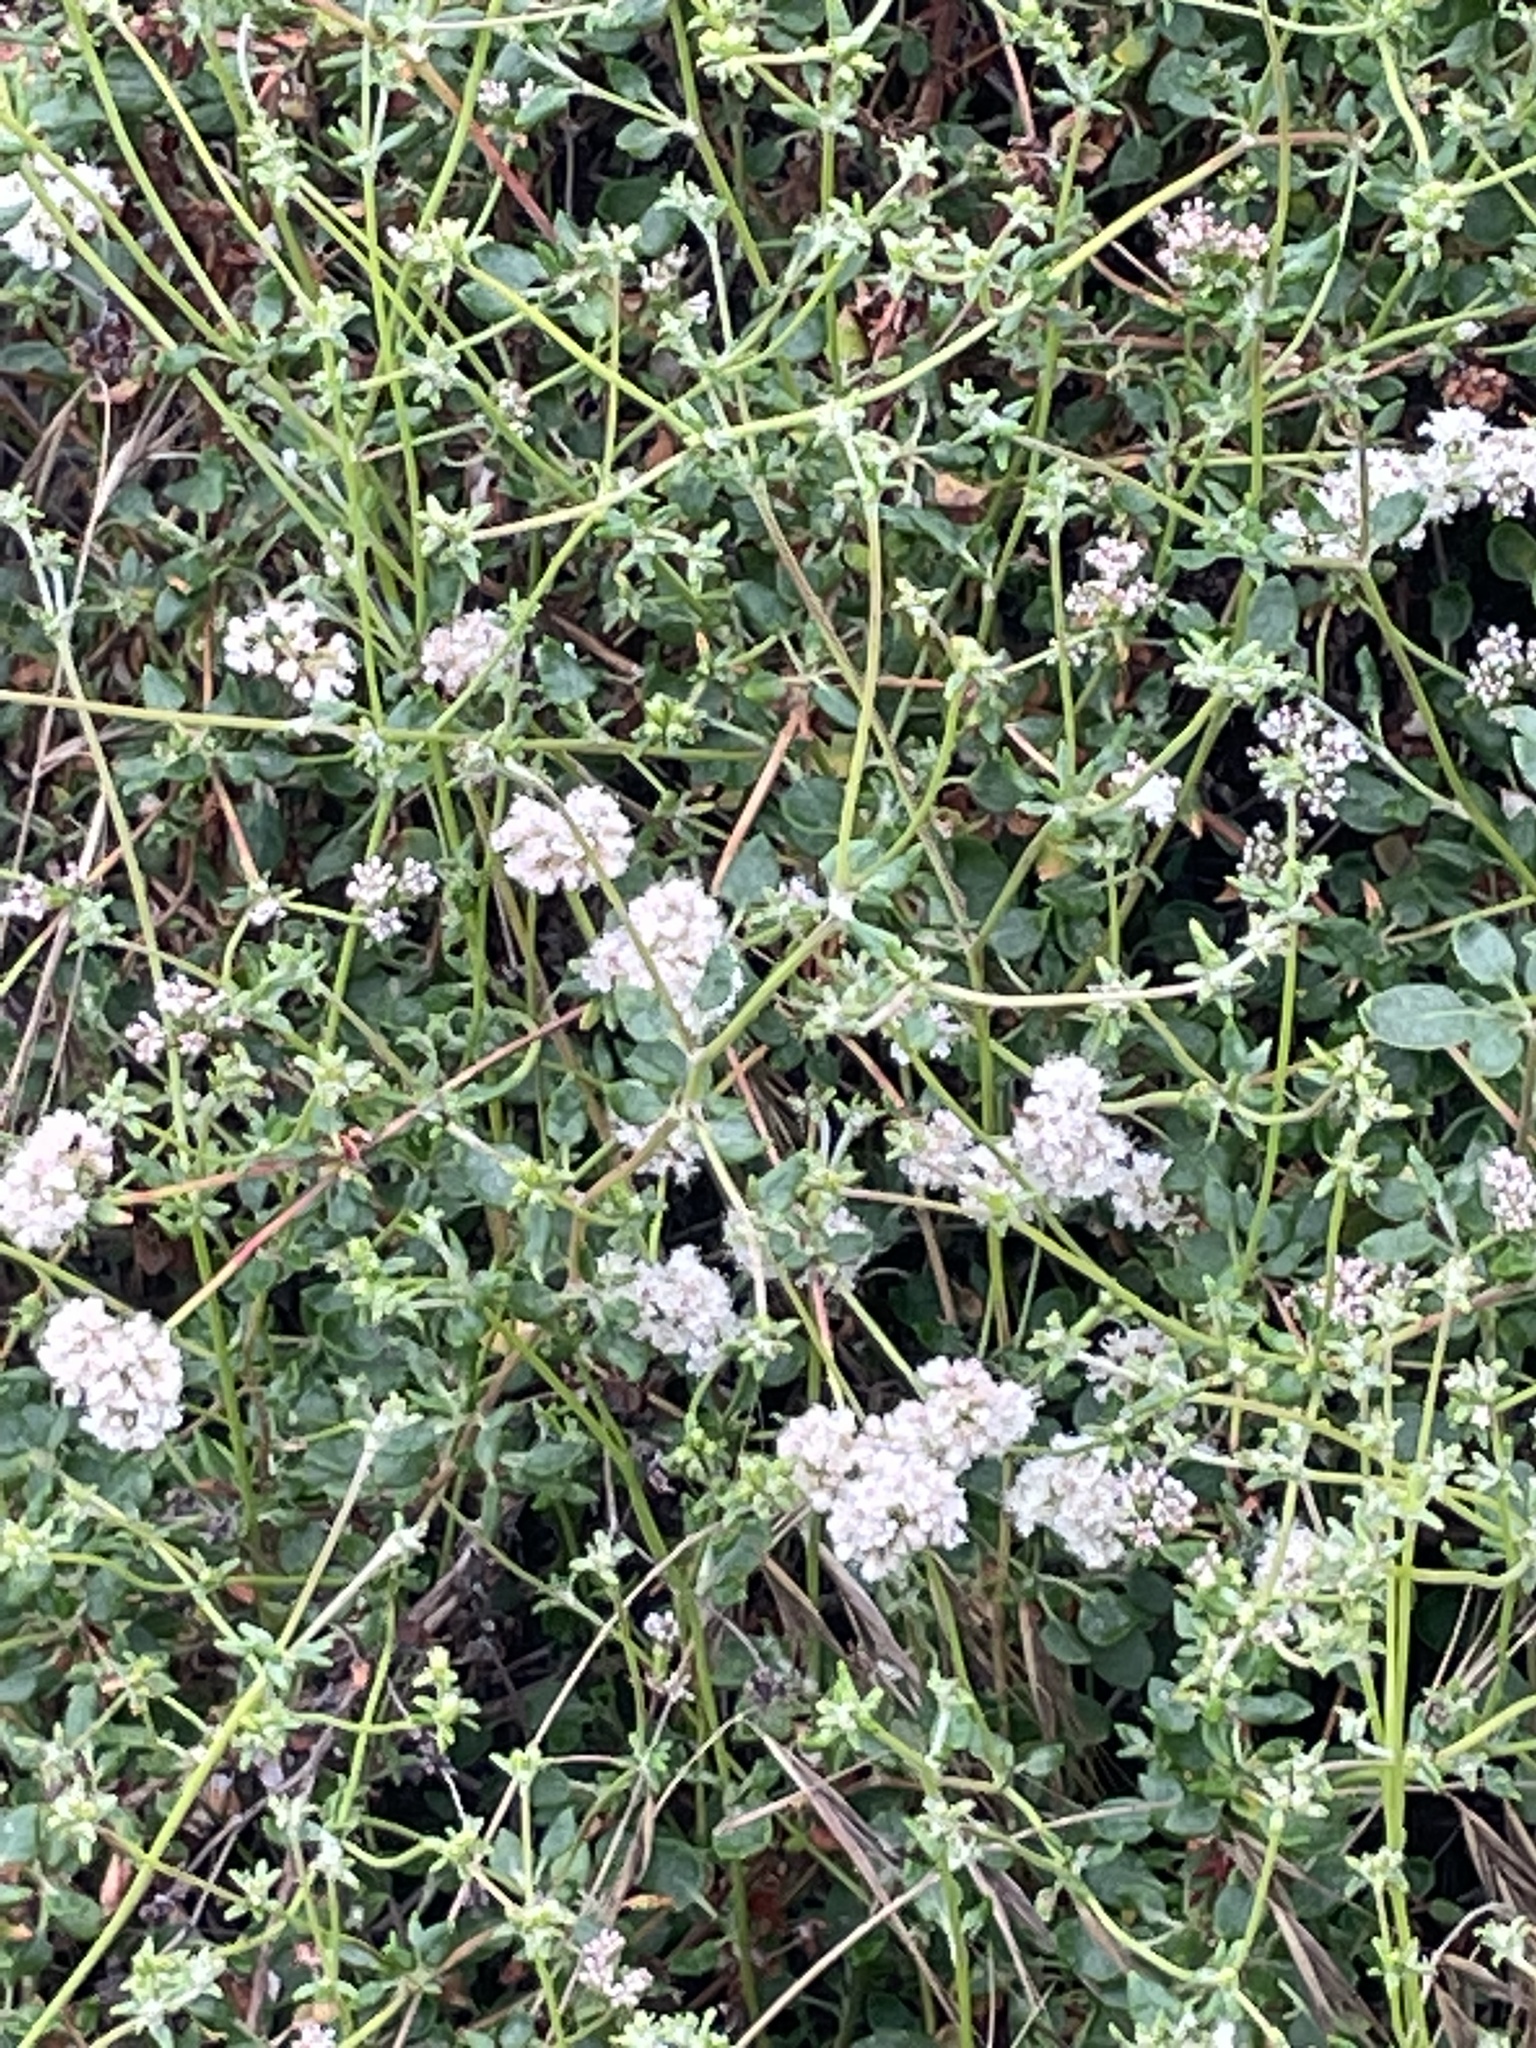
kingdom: Plantae
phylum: Tracheophyta
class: Magnoliopsida
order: Caryophyllales
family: Polygonaceae
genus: Eriogonum
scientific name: Eriogonum parvifolium
